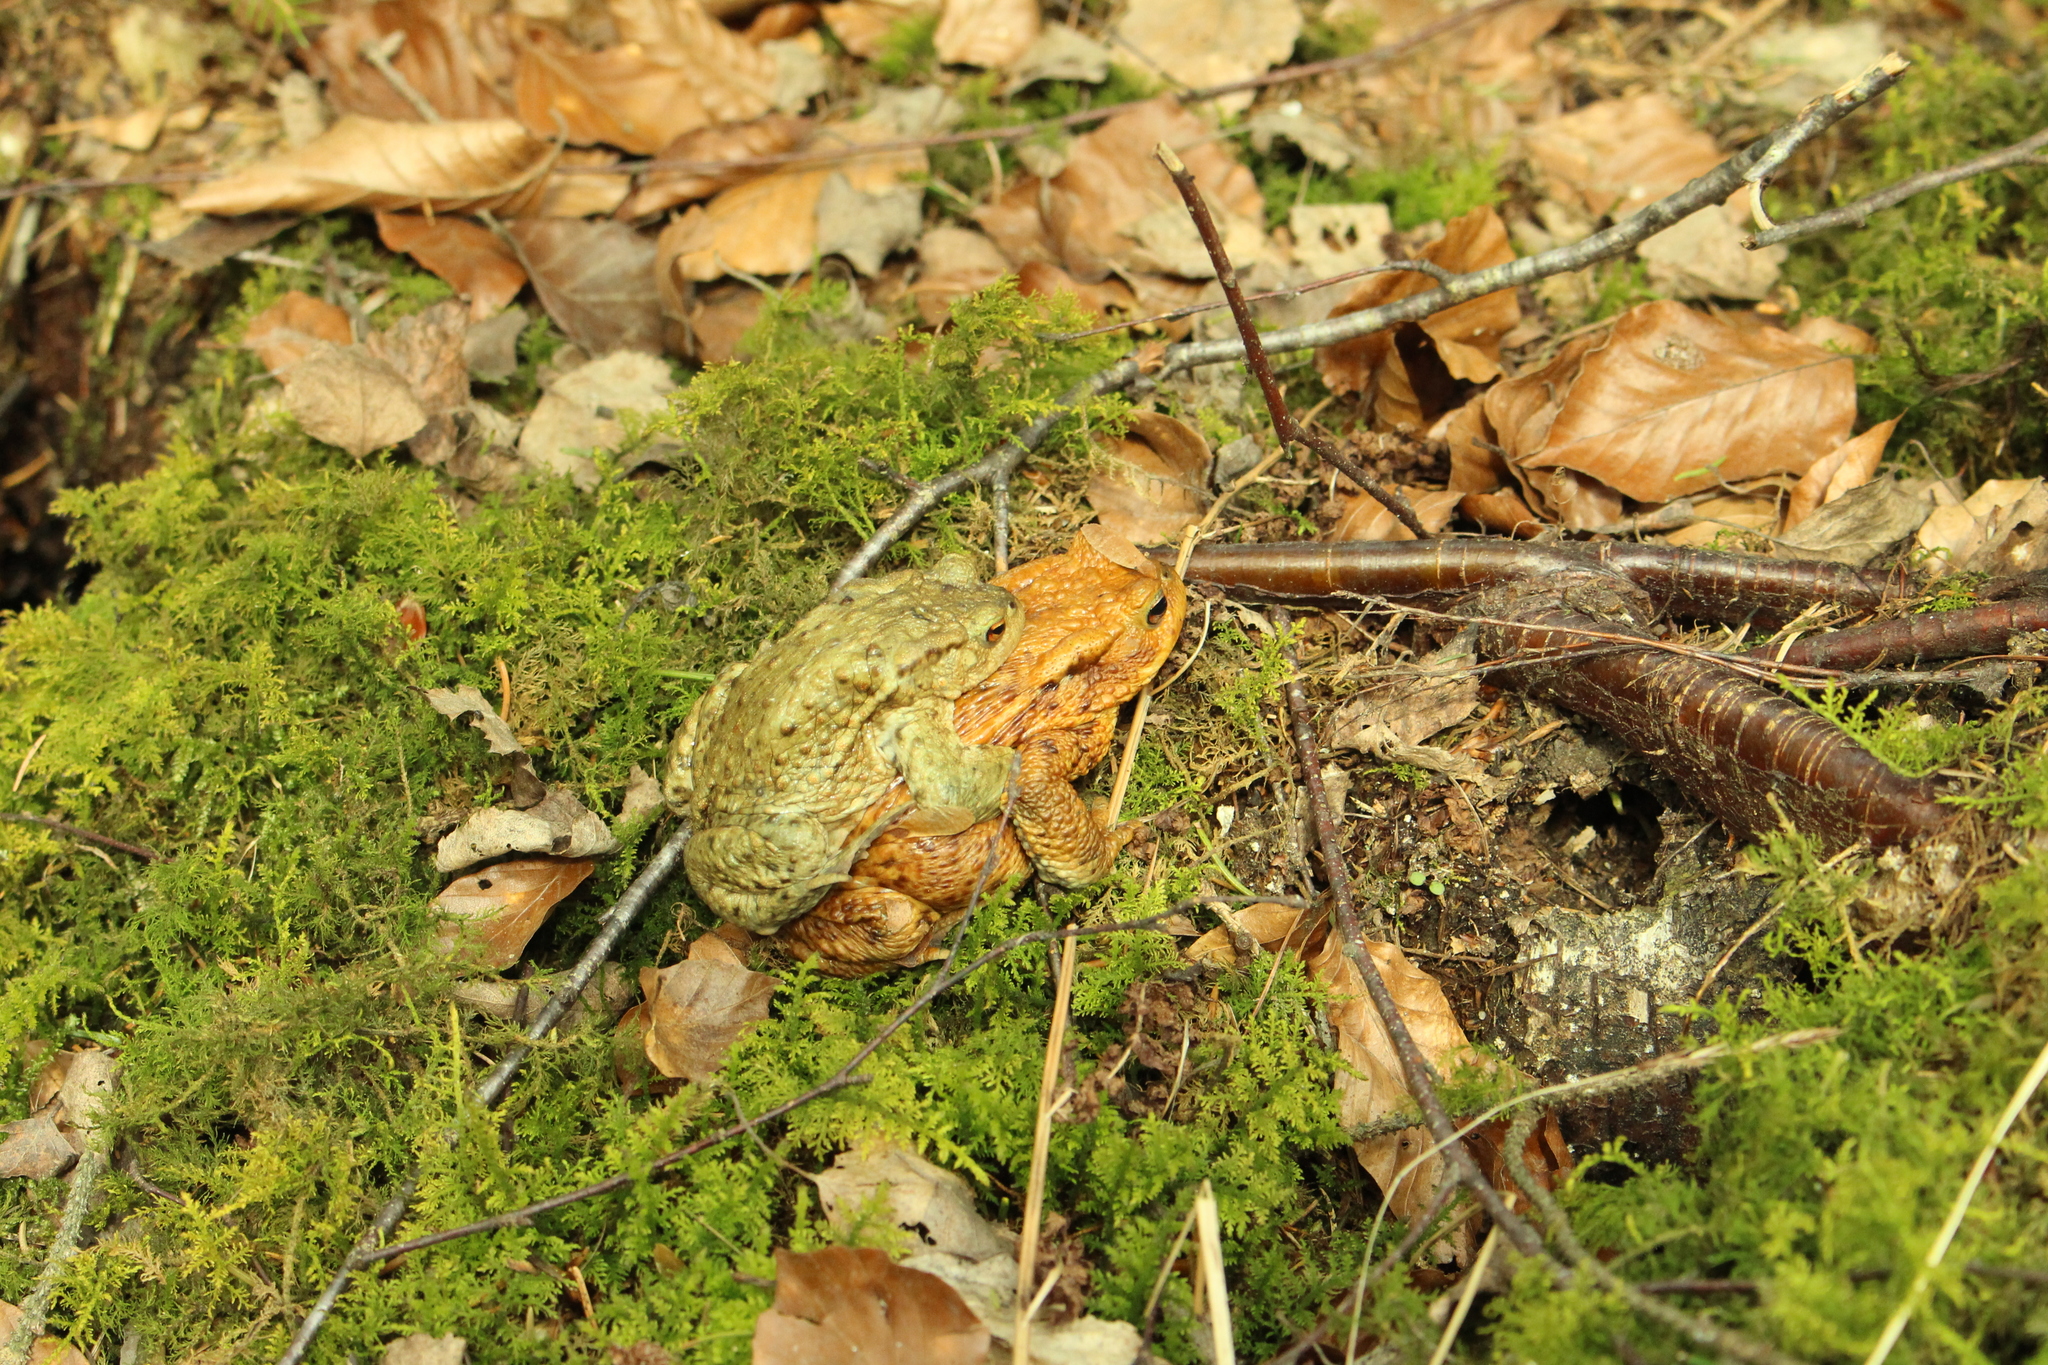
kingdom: Animalia
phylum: Chordata
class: Amphibia
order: Anura
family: Bufonidae
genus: Bufo
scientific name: Bufo bufo
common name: Common toad
